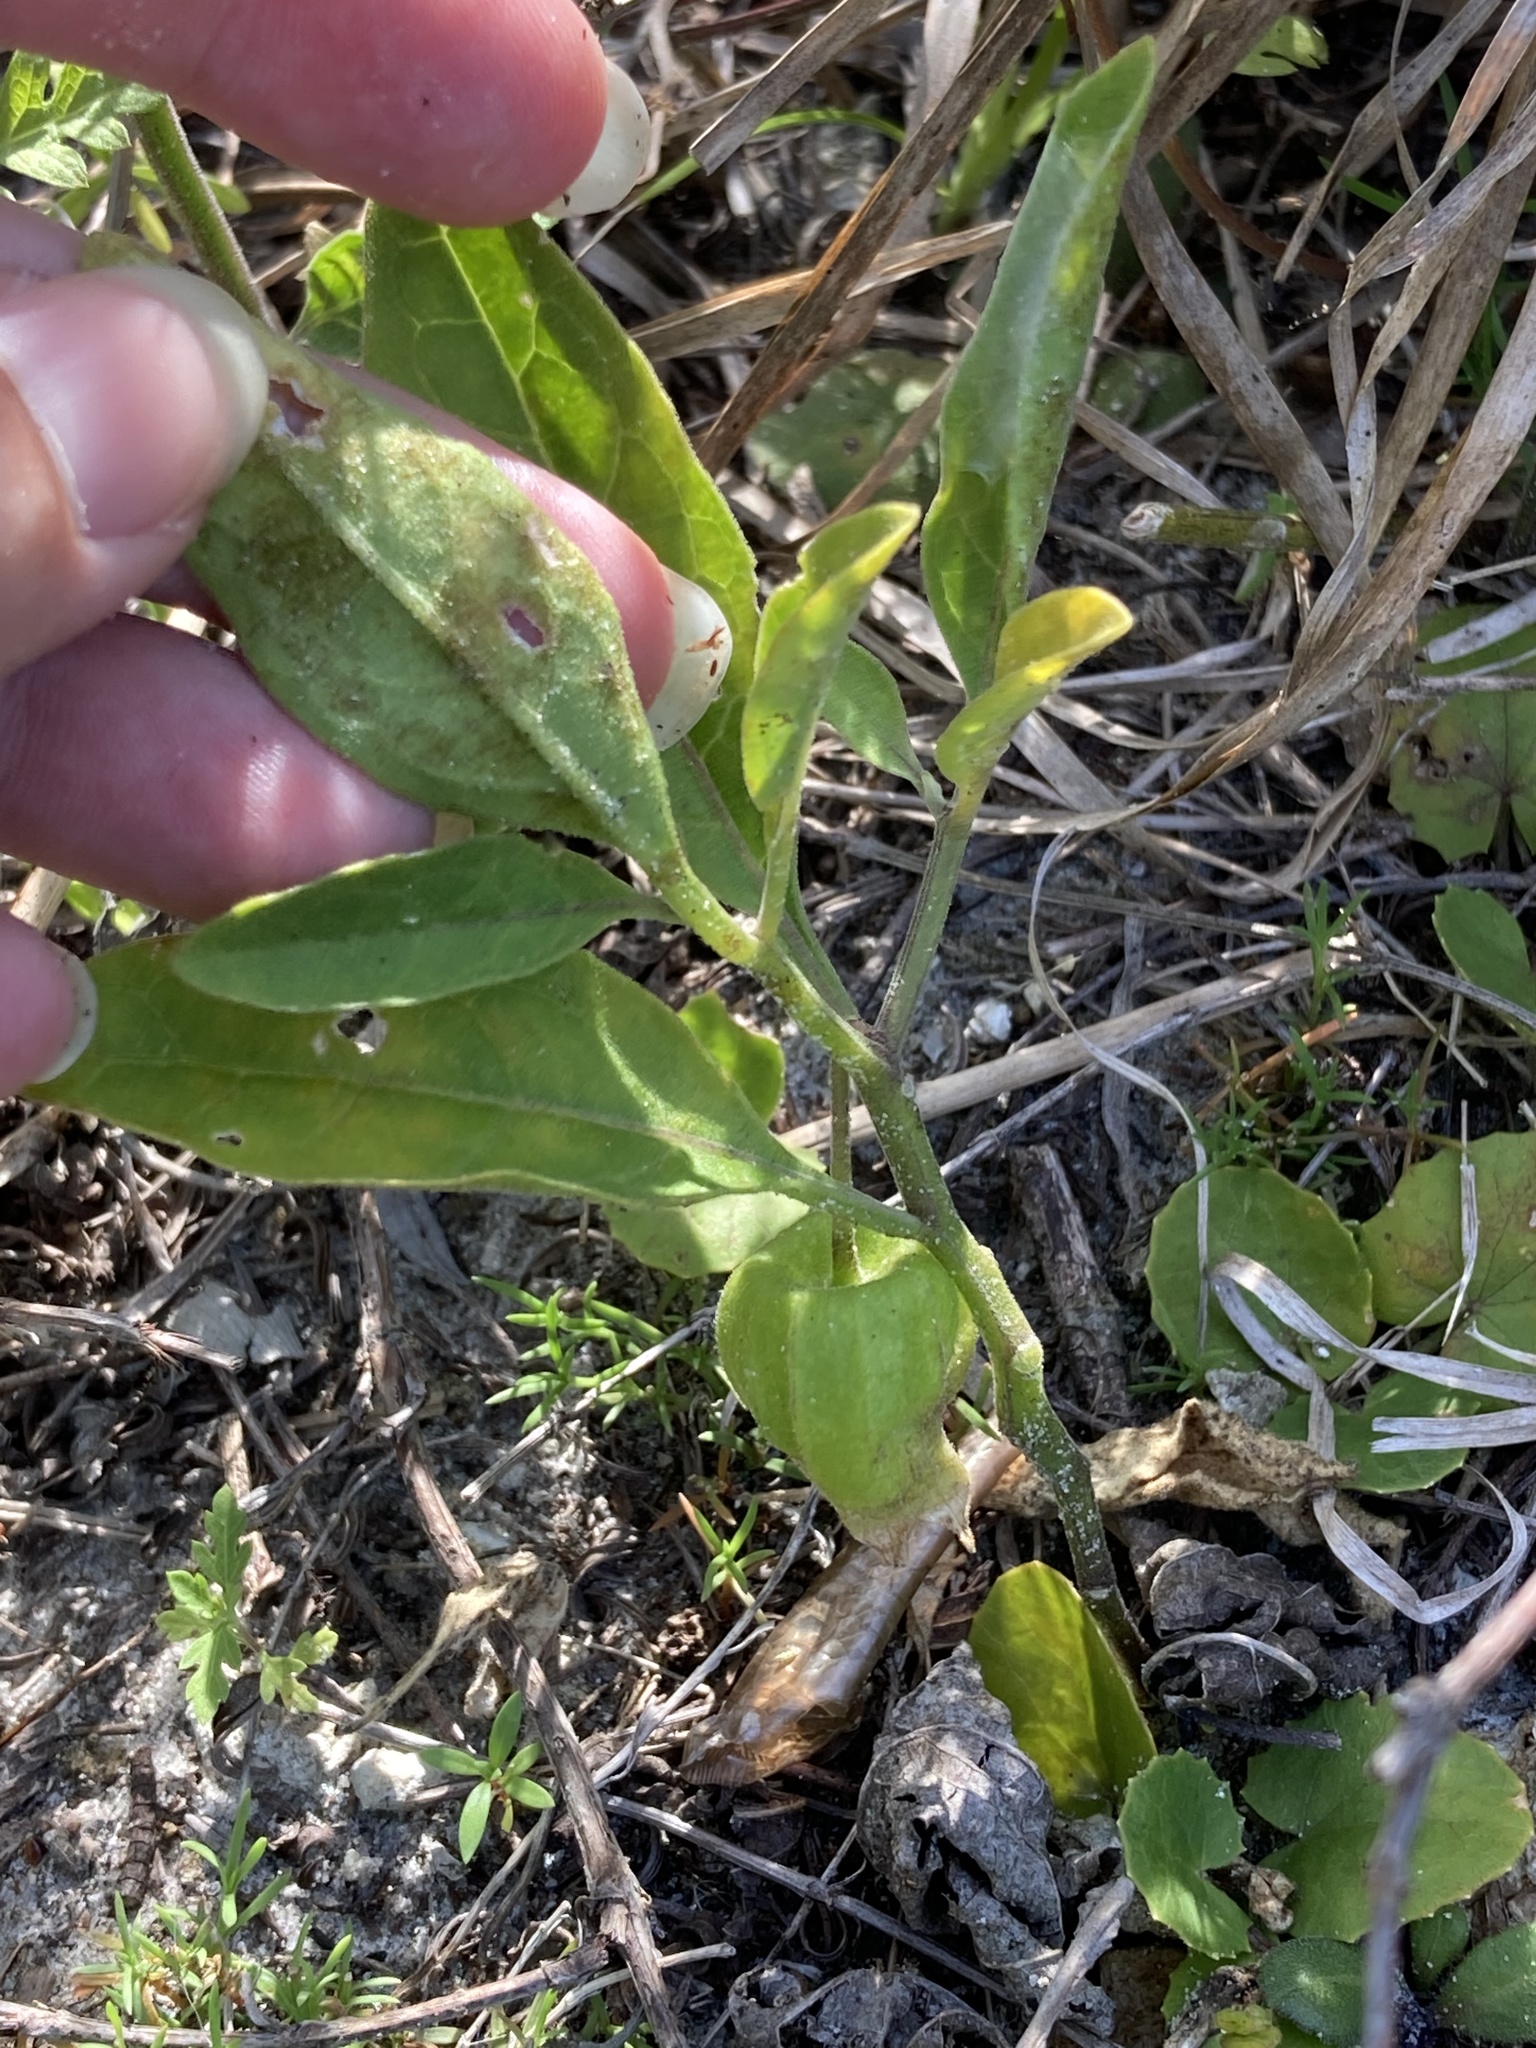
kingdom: Plantae
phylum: Tracheophyta
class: Magnoliopsida
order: Solanales
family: Solanaceae
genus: Physalis
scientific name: Physalis walteri
